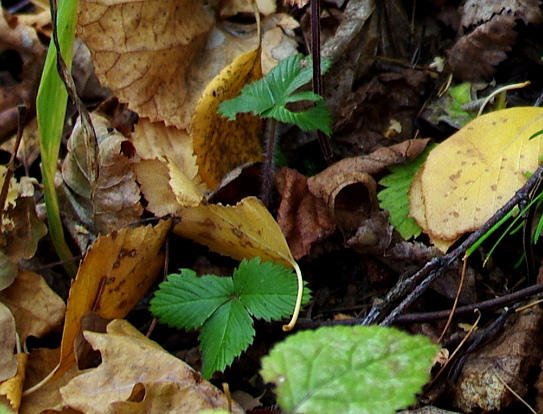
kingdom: Plantae
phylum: Tracheophyta
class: Magnoliopsida
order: Rosales
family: Rosaceae
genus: Fragaria
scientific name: Fragaria vesca
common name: Wild strawberry
